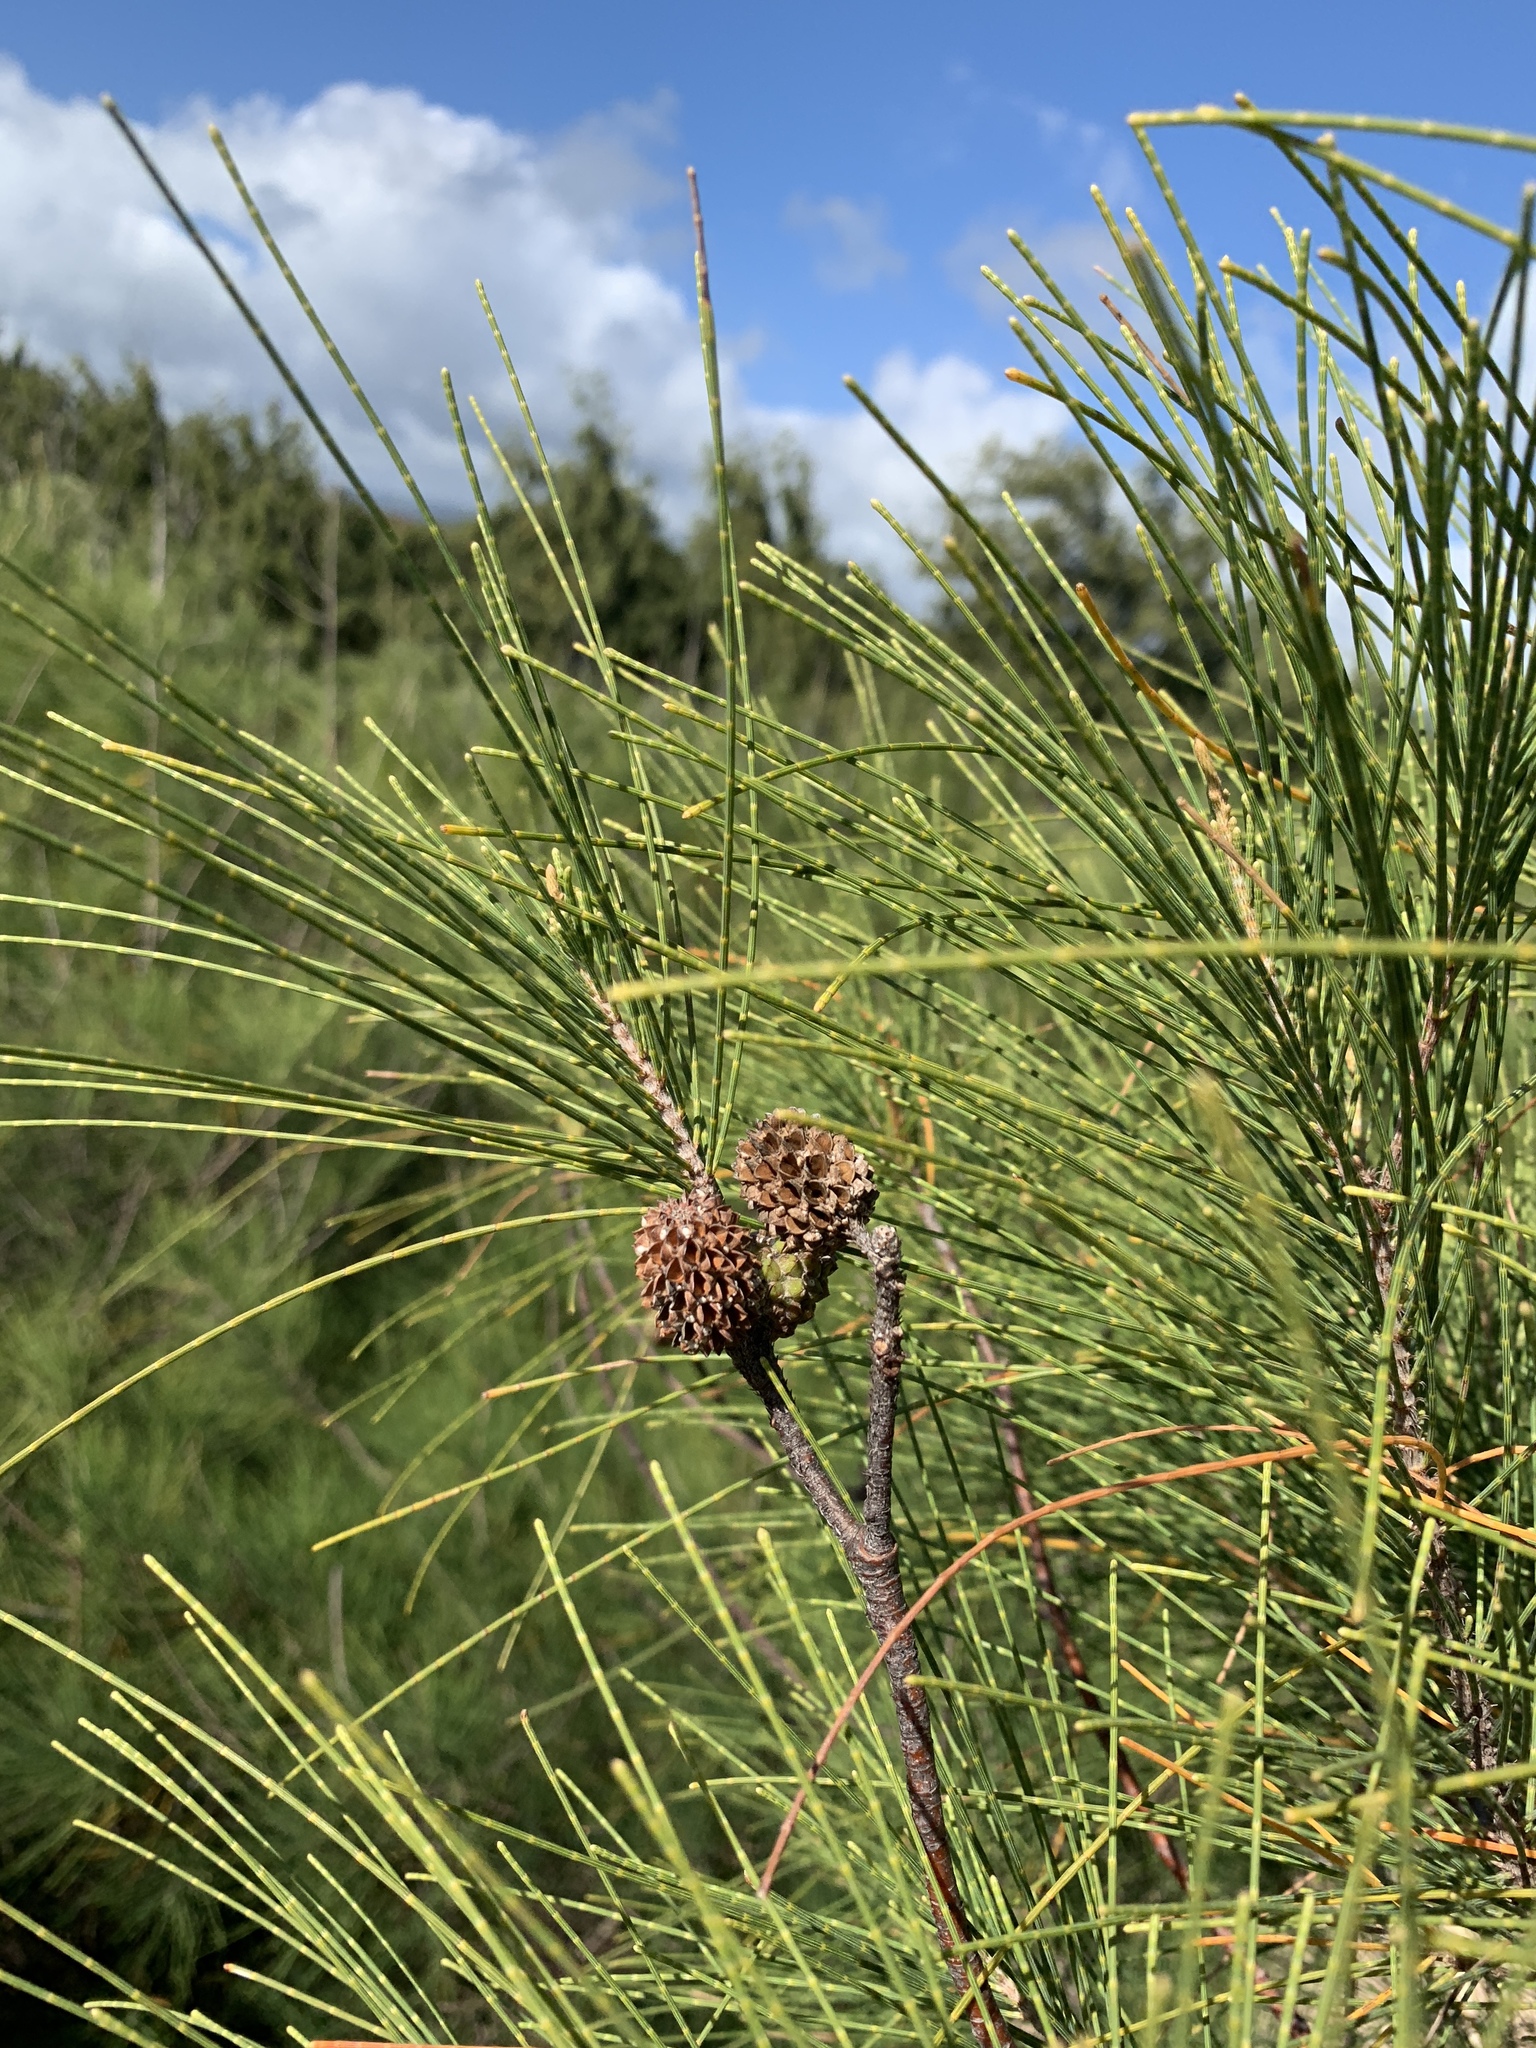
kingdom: Plantae
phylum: Tracheophyta
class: Magnoliopsida
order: Fagales
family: Casuarinaceae
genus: Casuarina
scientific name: Casuarina equisetifolia
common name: Beach sheoak
